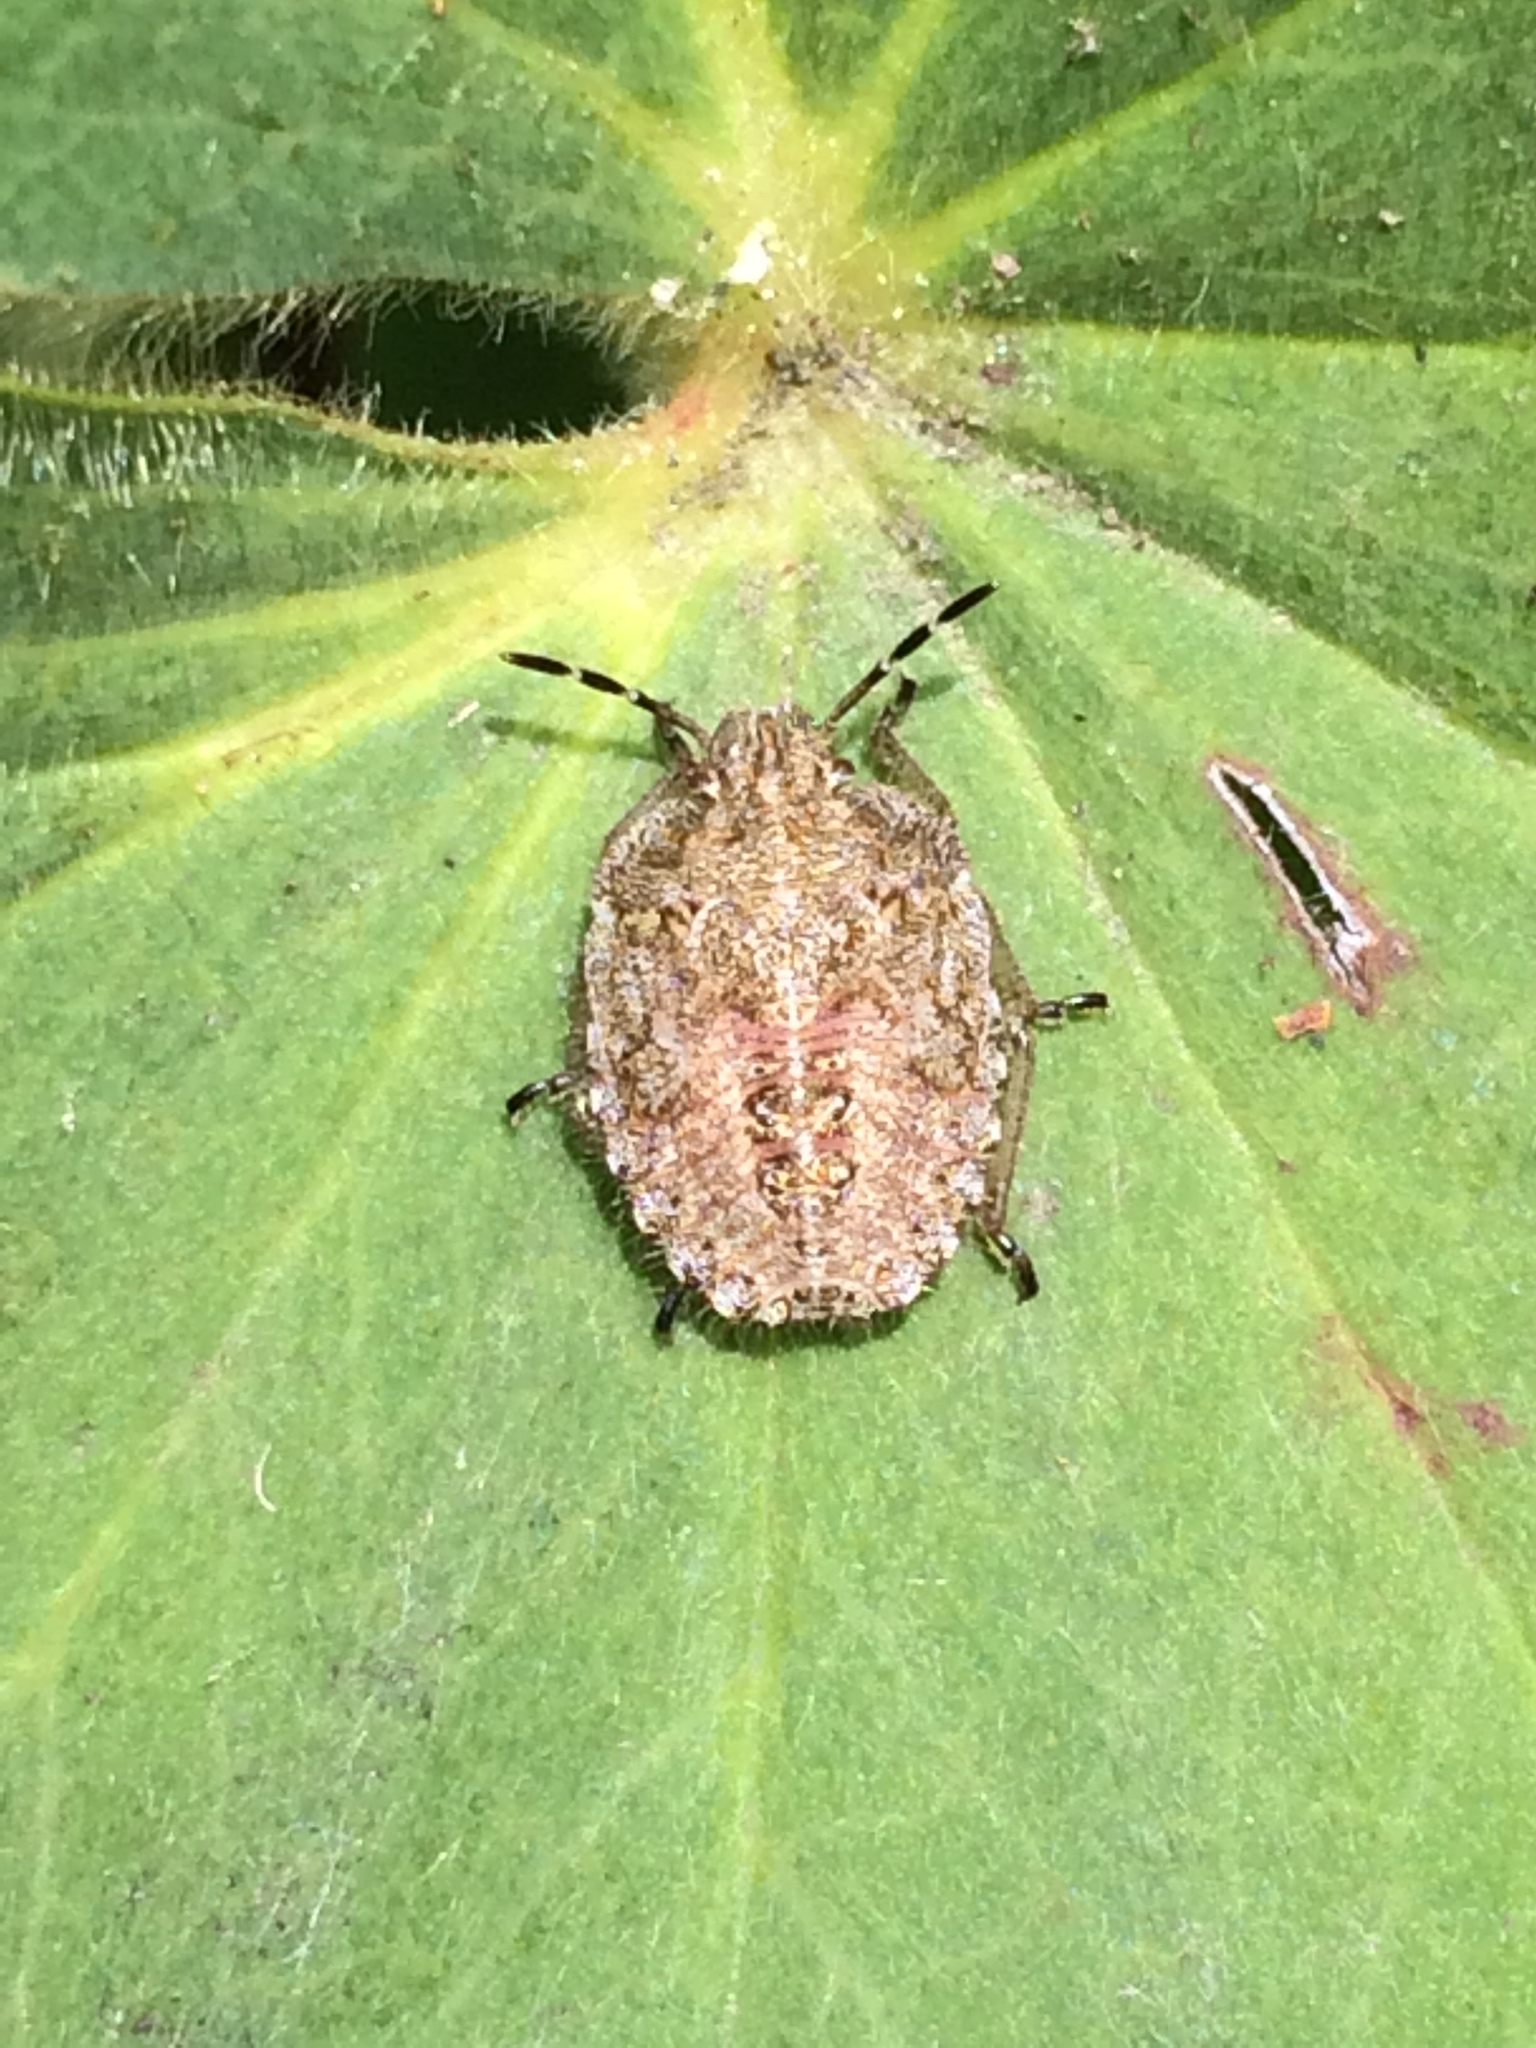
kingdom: Animalia
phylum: Arthropoda
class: Insecta
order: Hemiptera
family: Pentatomidae
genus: Dolycoris
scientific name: Dolycoris baccarum
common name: Sloe bug
